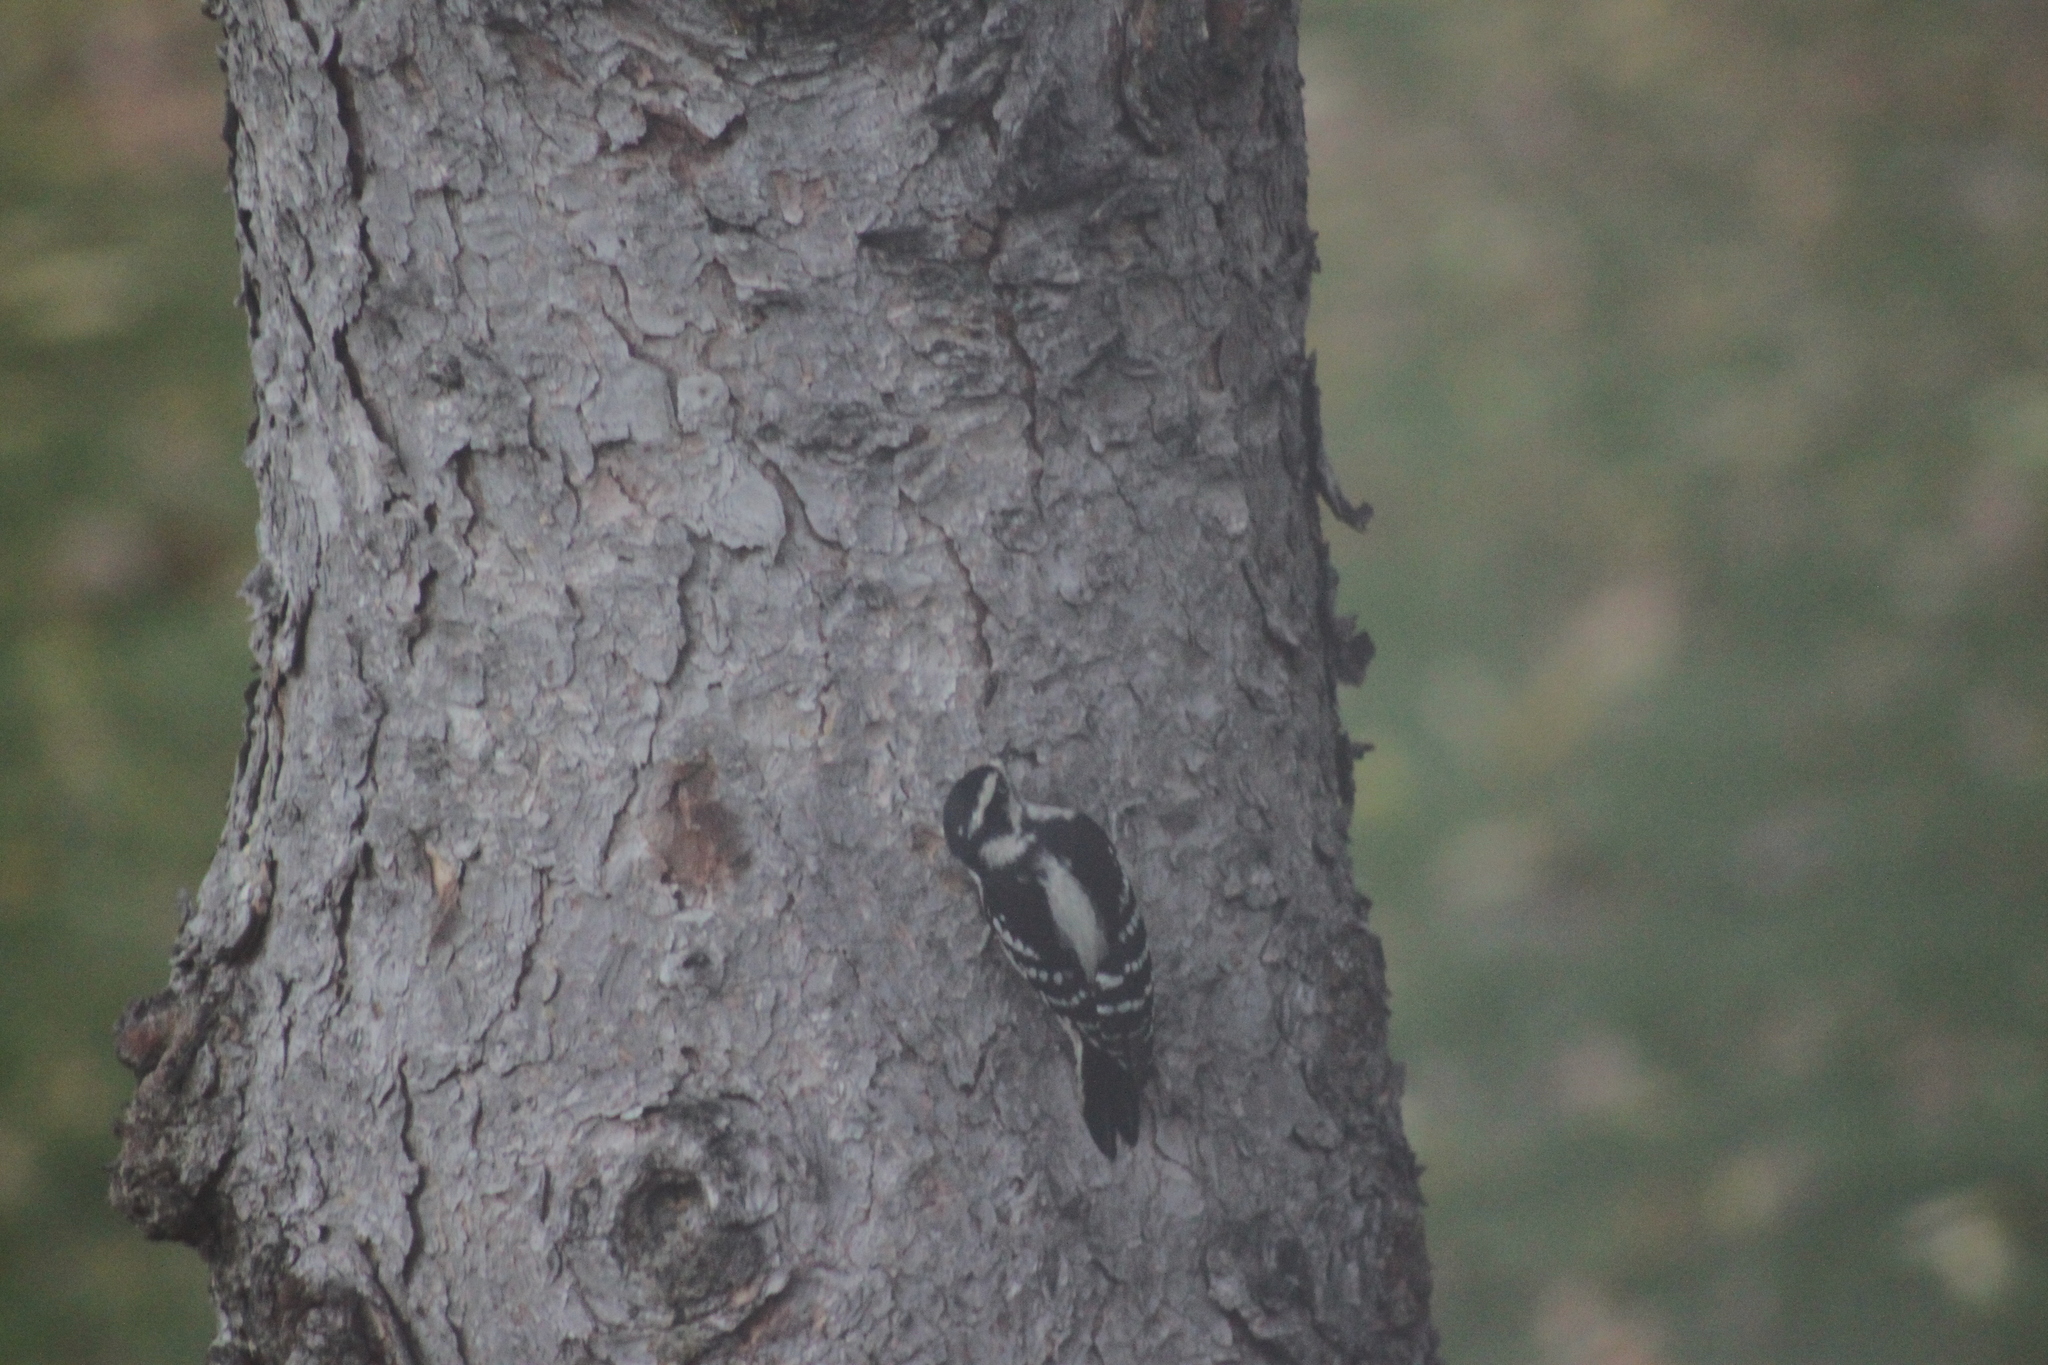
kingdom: Animalia
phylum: Chordata
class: Aves
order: Piciformes
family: Picidae
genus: Dryobates
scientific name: Dryobates pubescens
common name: Downy woodpecker
